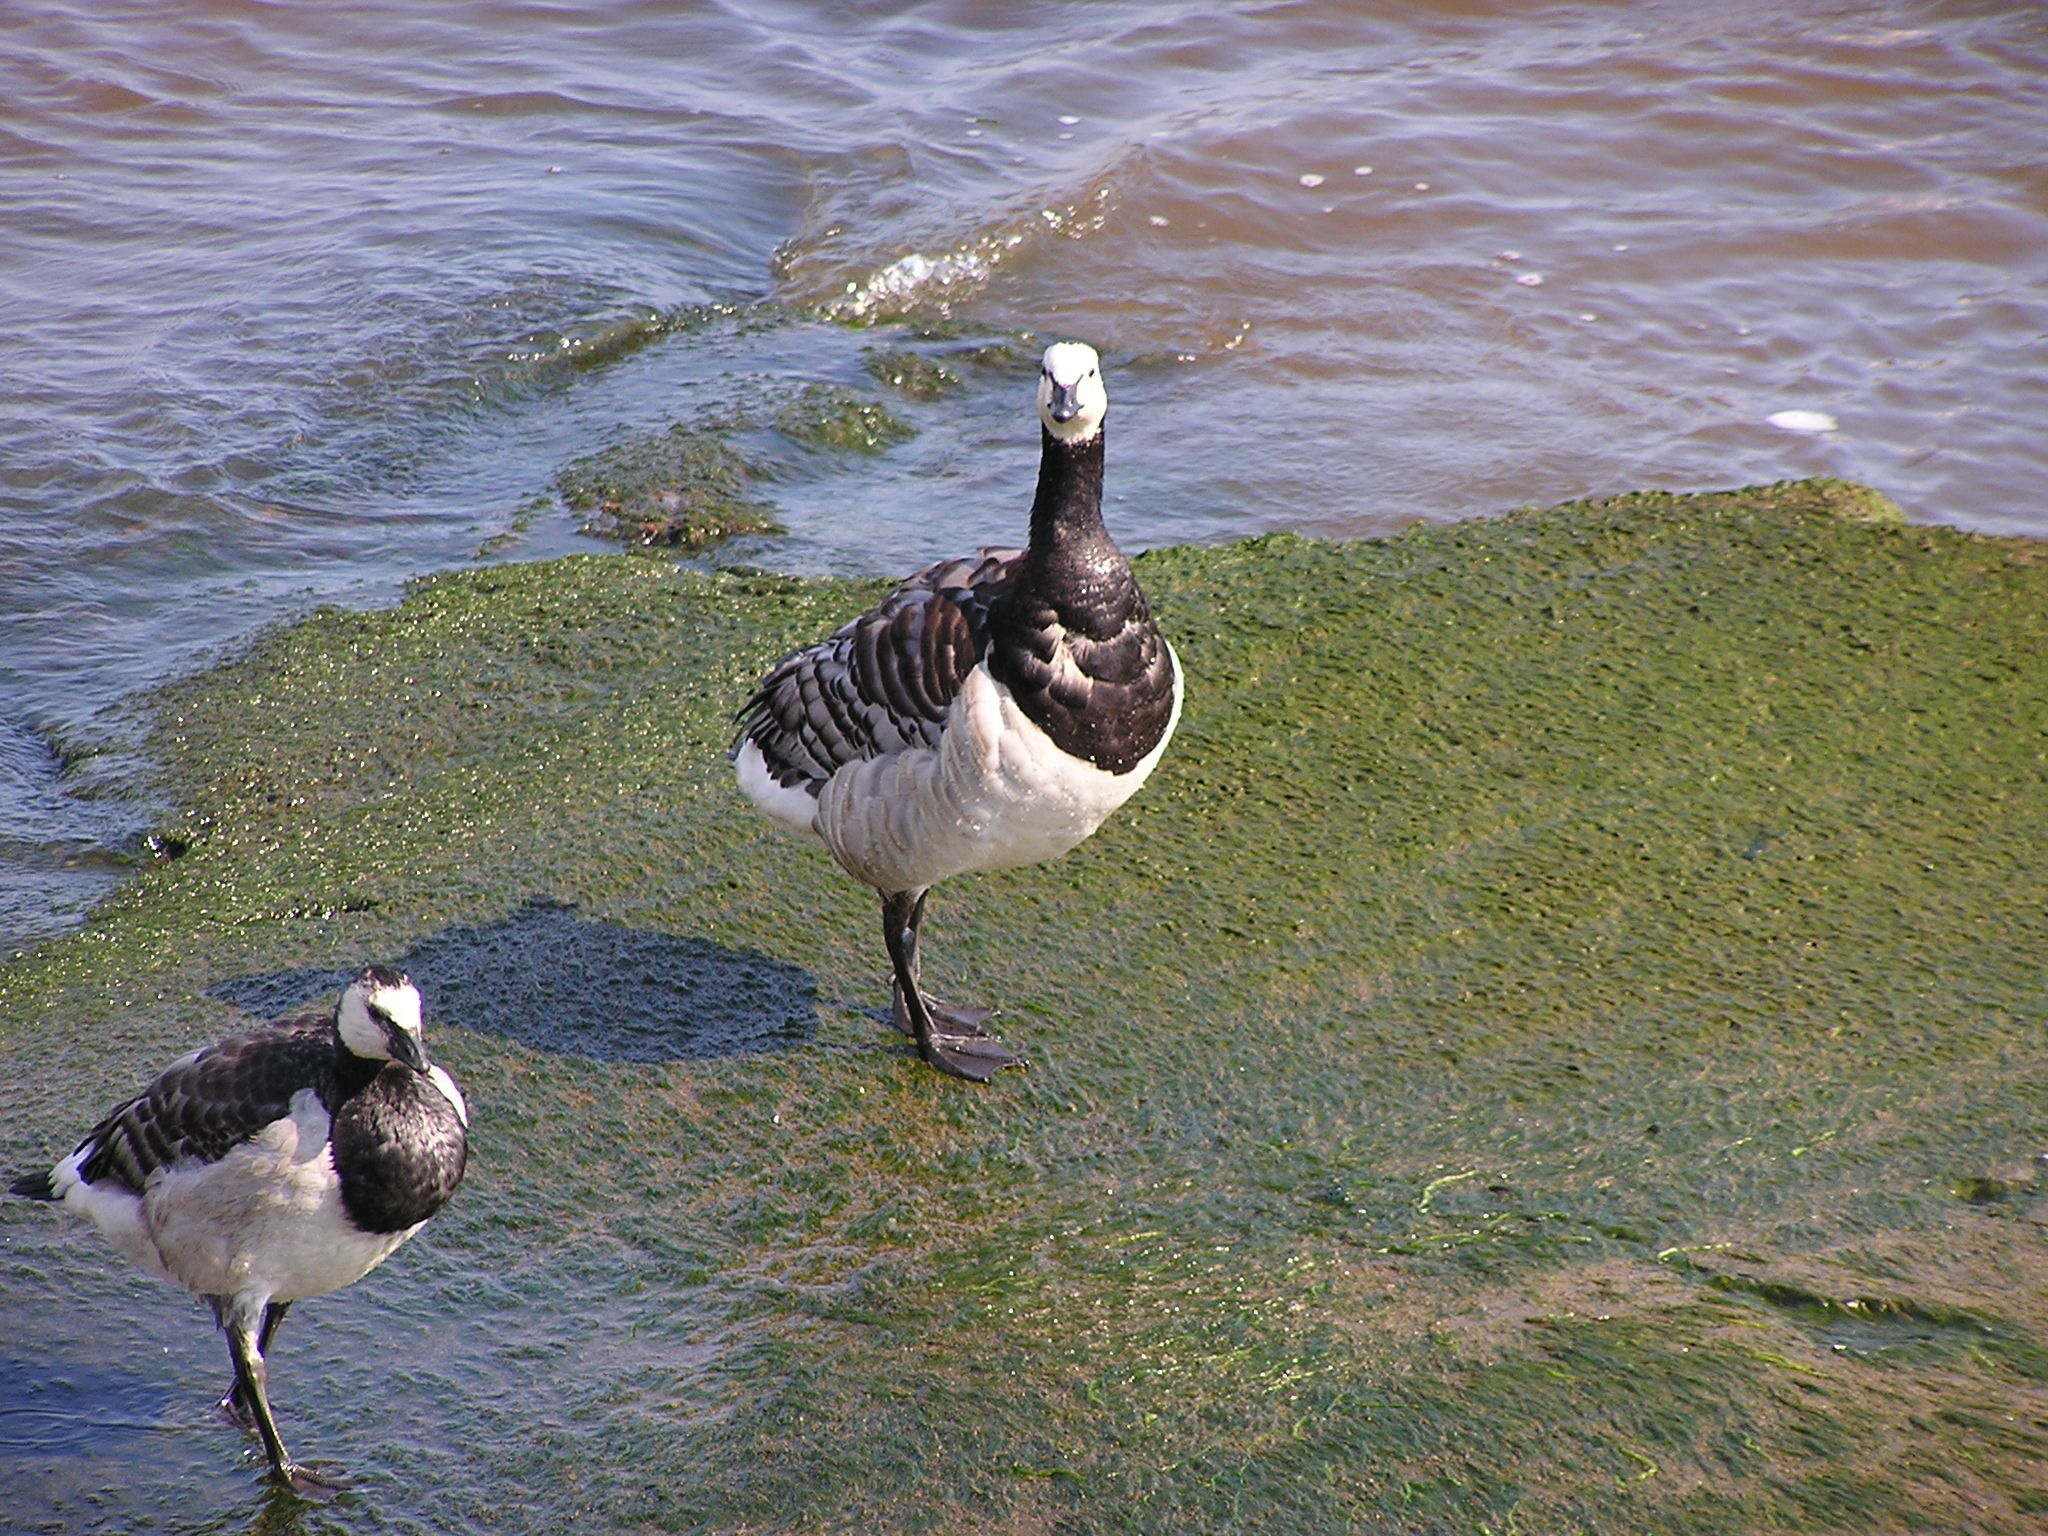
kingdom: Animalia
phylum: Chordata
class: Aves
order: Anseriformes
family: Anatidae
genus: Branta
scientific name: Branta leucopsis
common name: Barnacle goose
